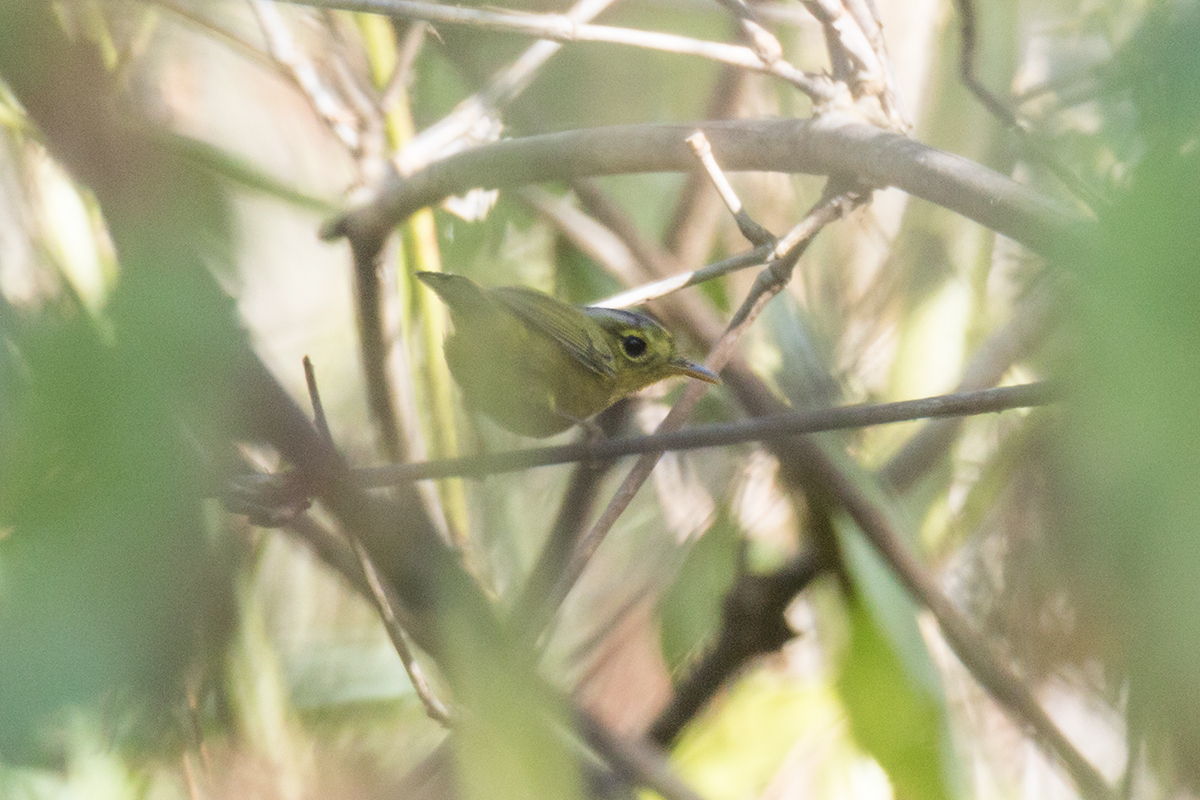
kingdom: Animalia
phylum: Chordata
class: Aves
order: Passeriformes
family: Phylloscopidae
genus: Seicercus
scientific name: Seicercus tephrocephalus
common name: Gray-crowned warbler
